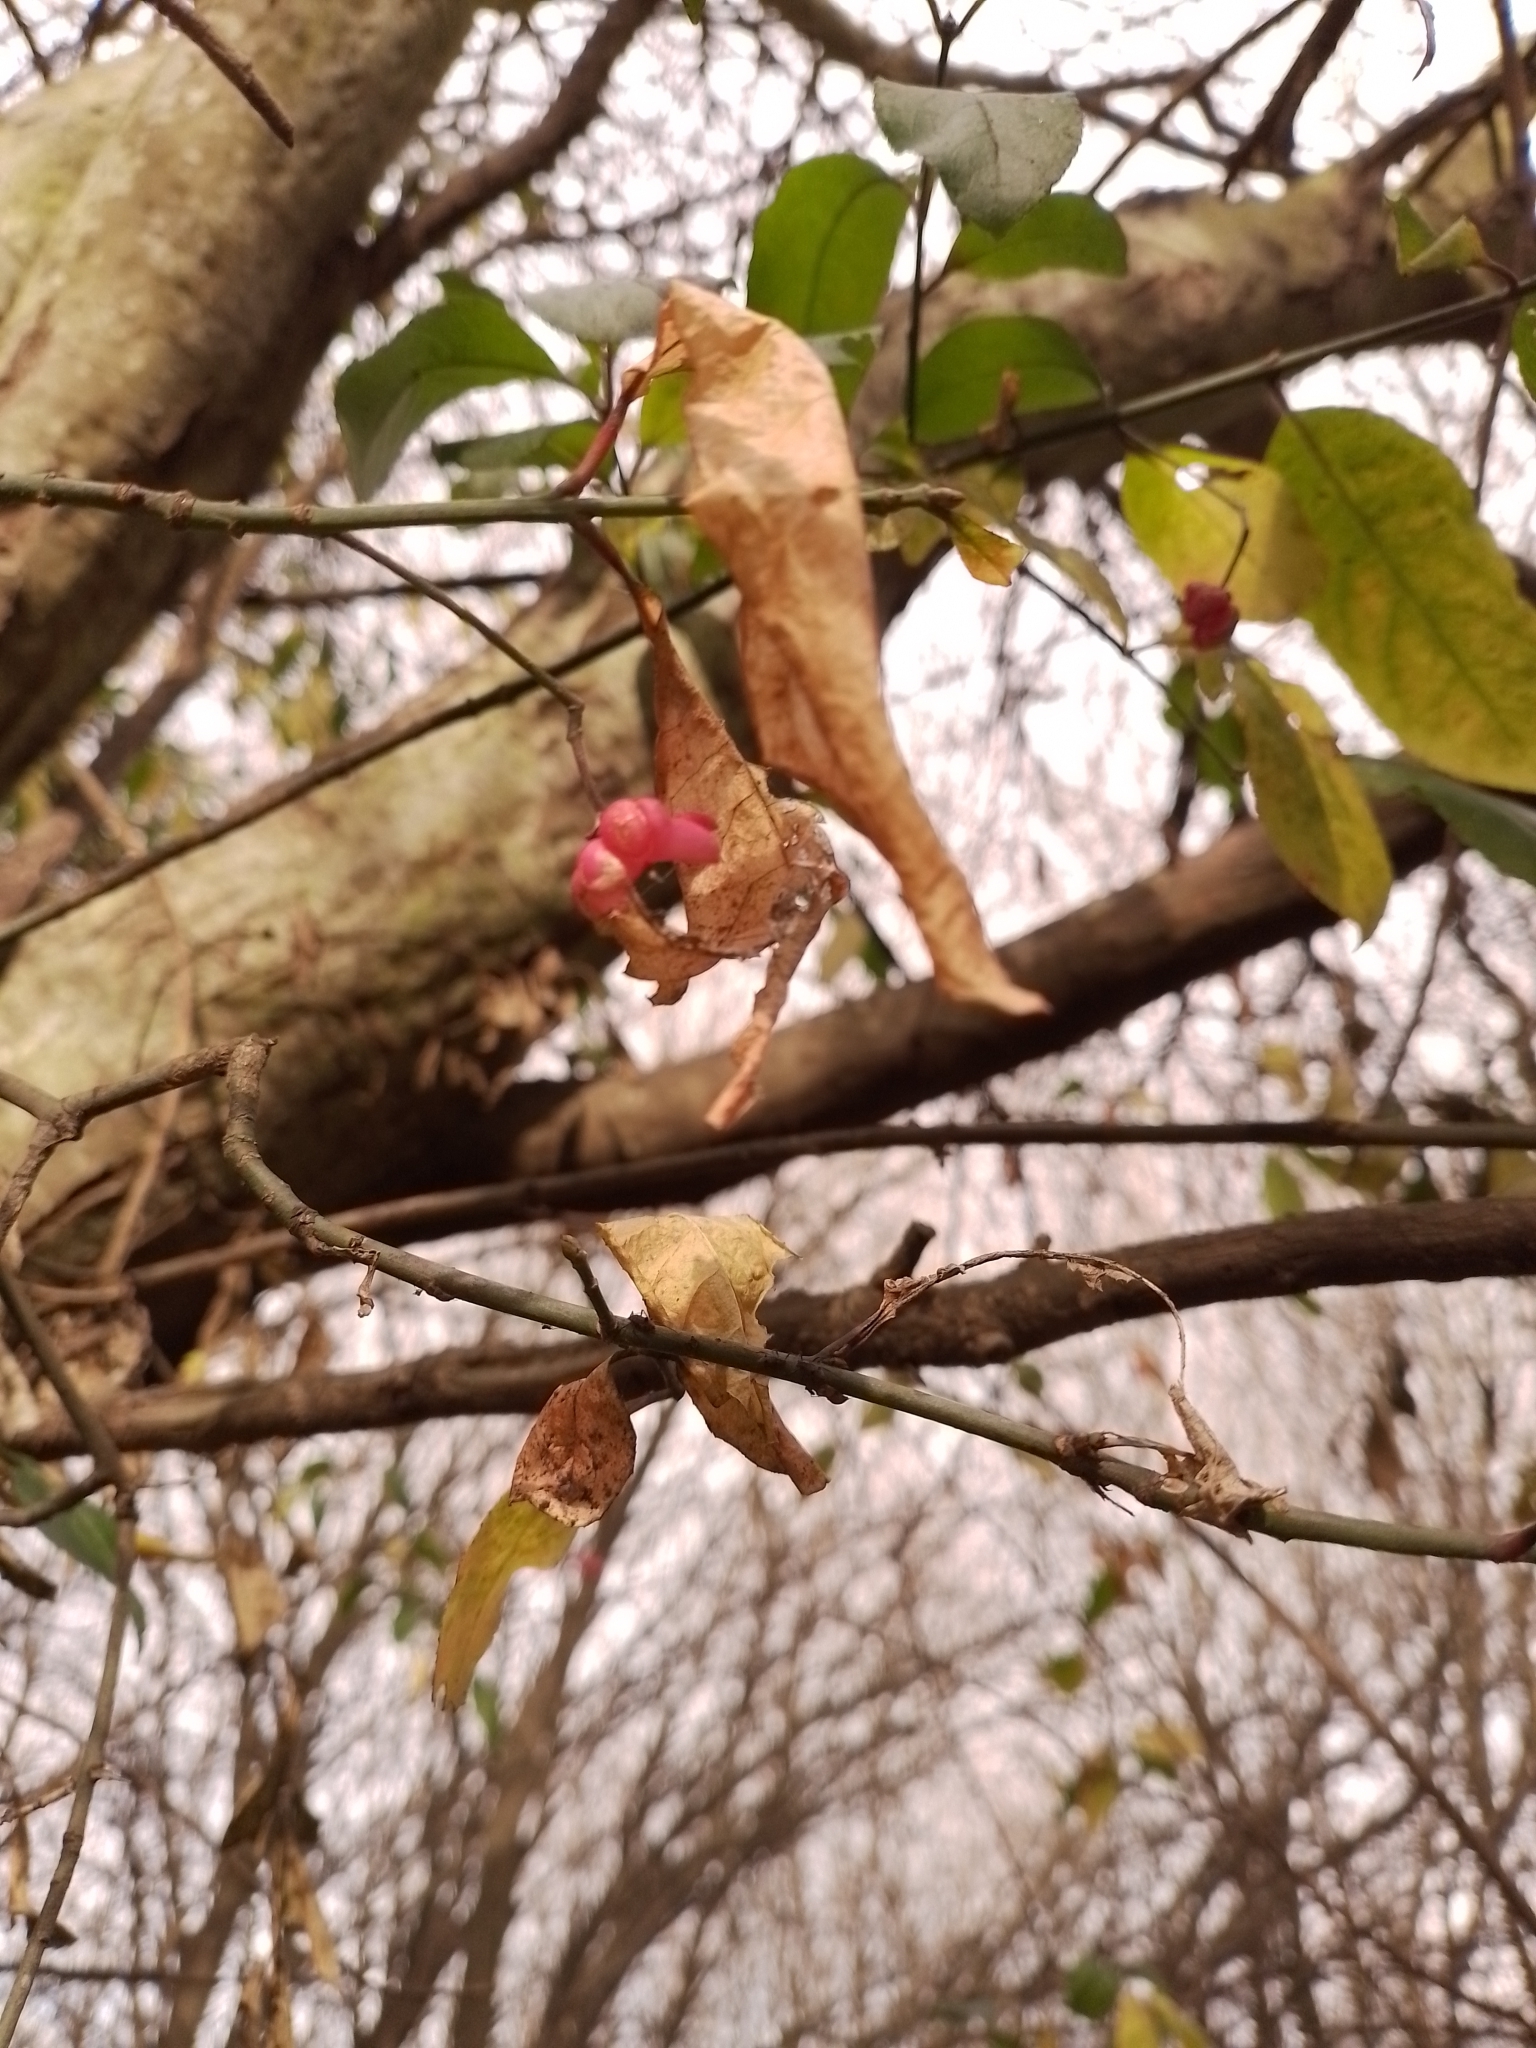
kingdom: Plantae
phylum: Tracheophyta
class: Magnoliopsida
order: Celastrales
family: Celastraceae
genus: Euonymus
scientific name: Euonymus europaeus
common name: Spindle
